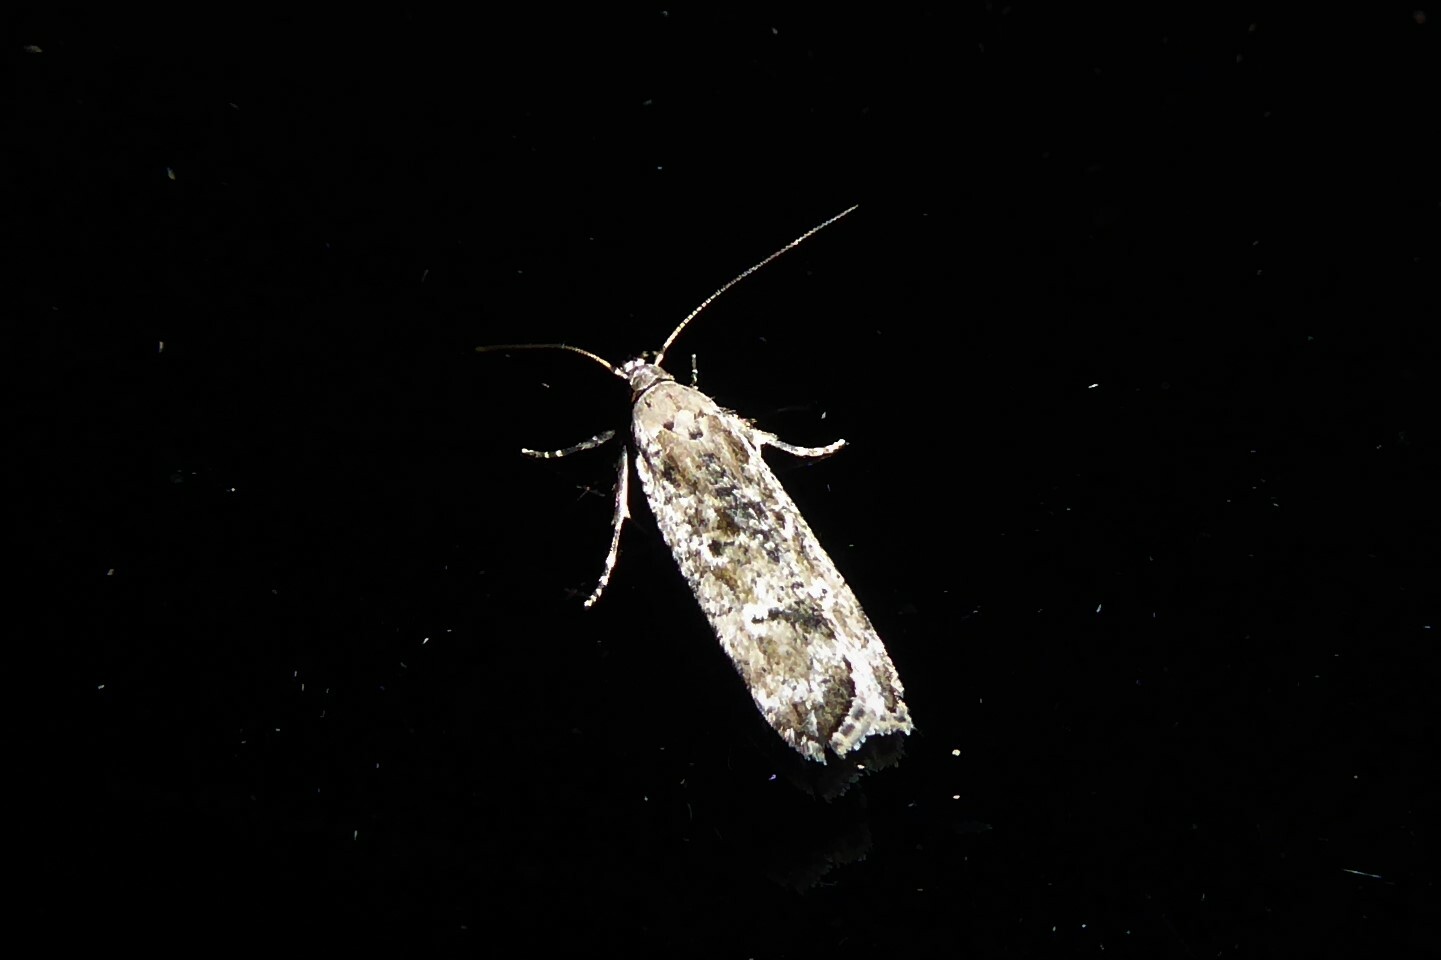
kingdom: Animalia
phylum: Arthropoda
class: Insecta
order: Lepidoptera
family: Gelechiidae
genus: Anisoplaca
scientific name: Anisoplaca achyrota
